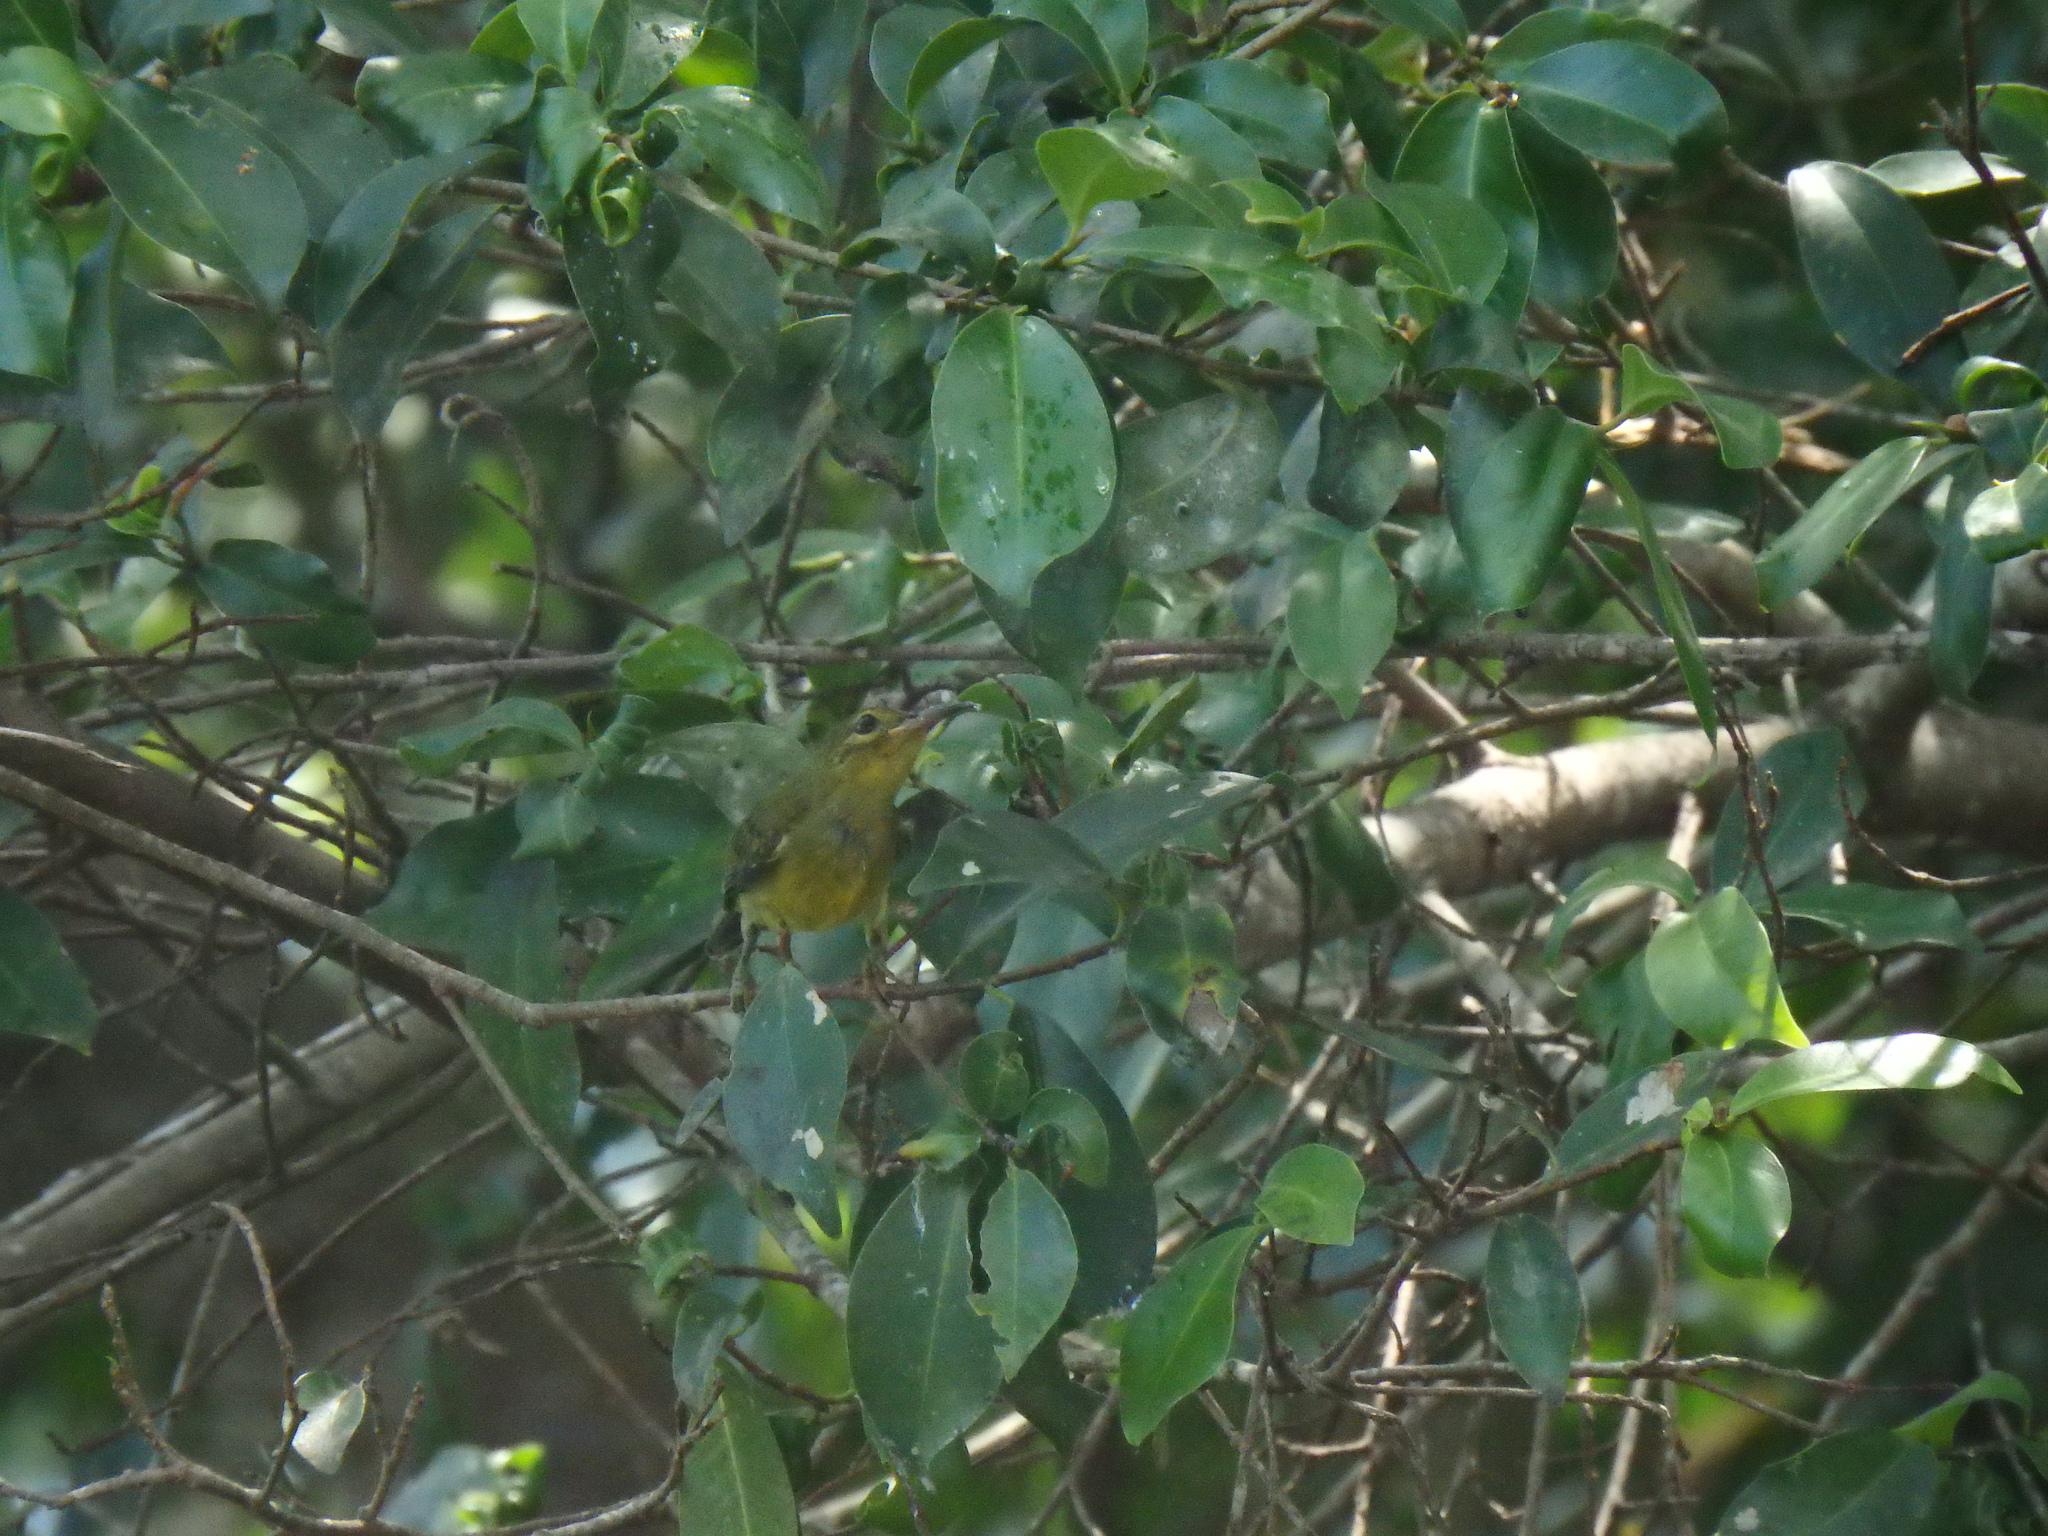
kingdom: Animalia
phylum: Chordata
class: Aves
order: Passeriformes
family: Nectariniidae
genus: Anthreptes
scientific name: Anthreptes malacensis
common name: Brown-throated sunbird
